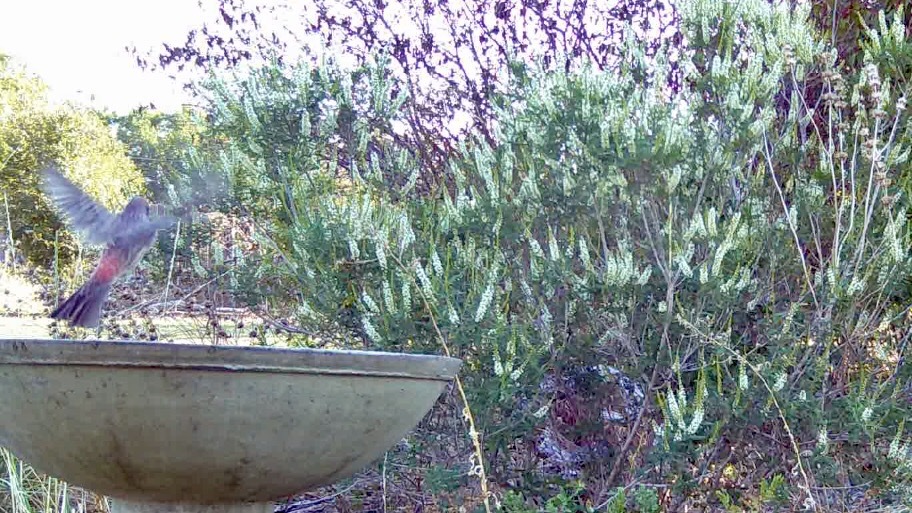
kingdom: Animalia
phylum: Chordata
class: Aves
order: Passeriformes
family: Fringillidae
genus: Haemorhous
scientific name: Haemorhous mexicanus
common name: House finch
